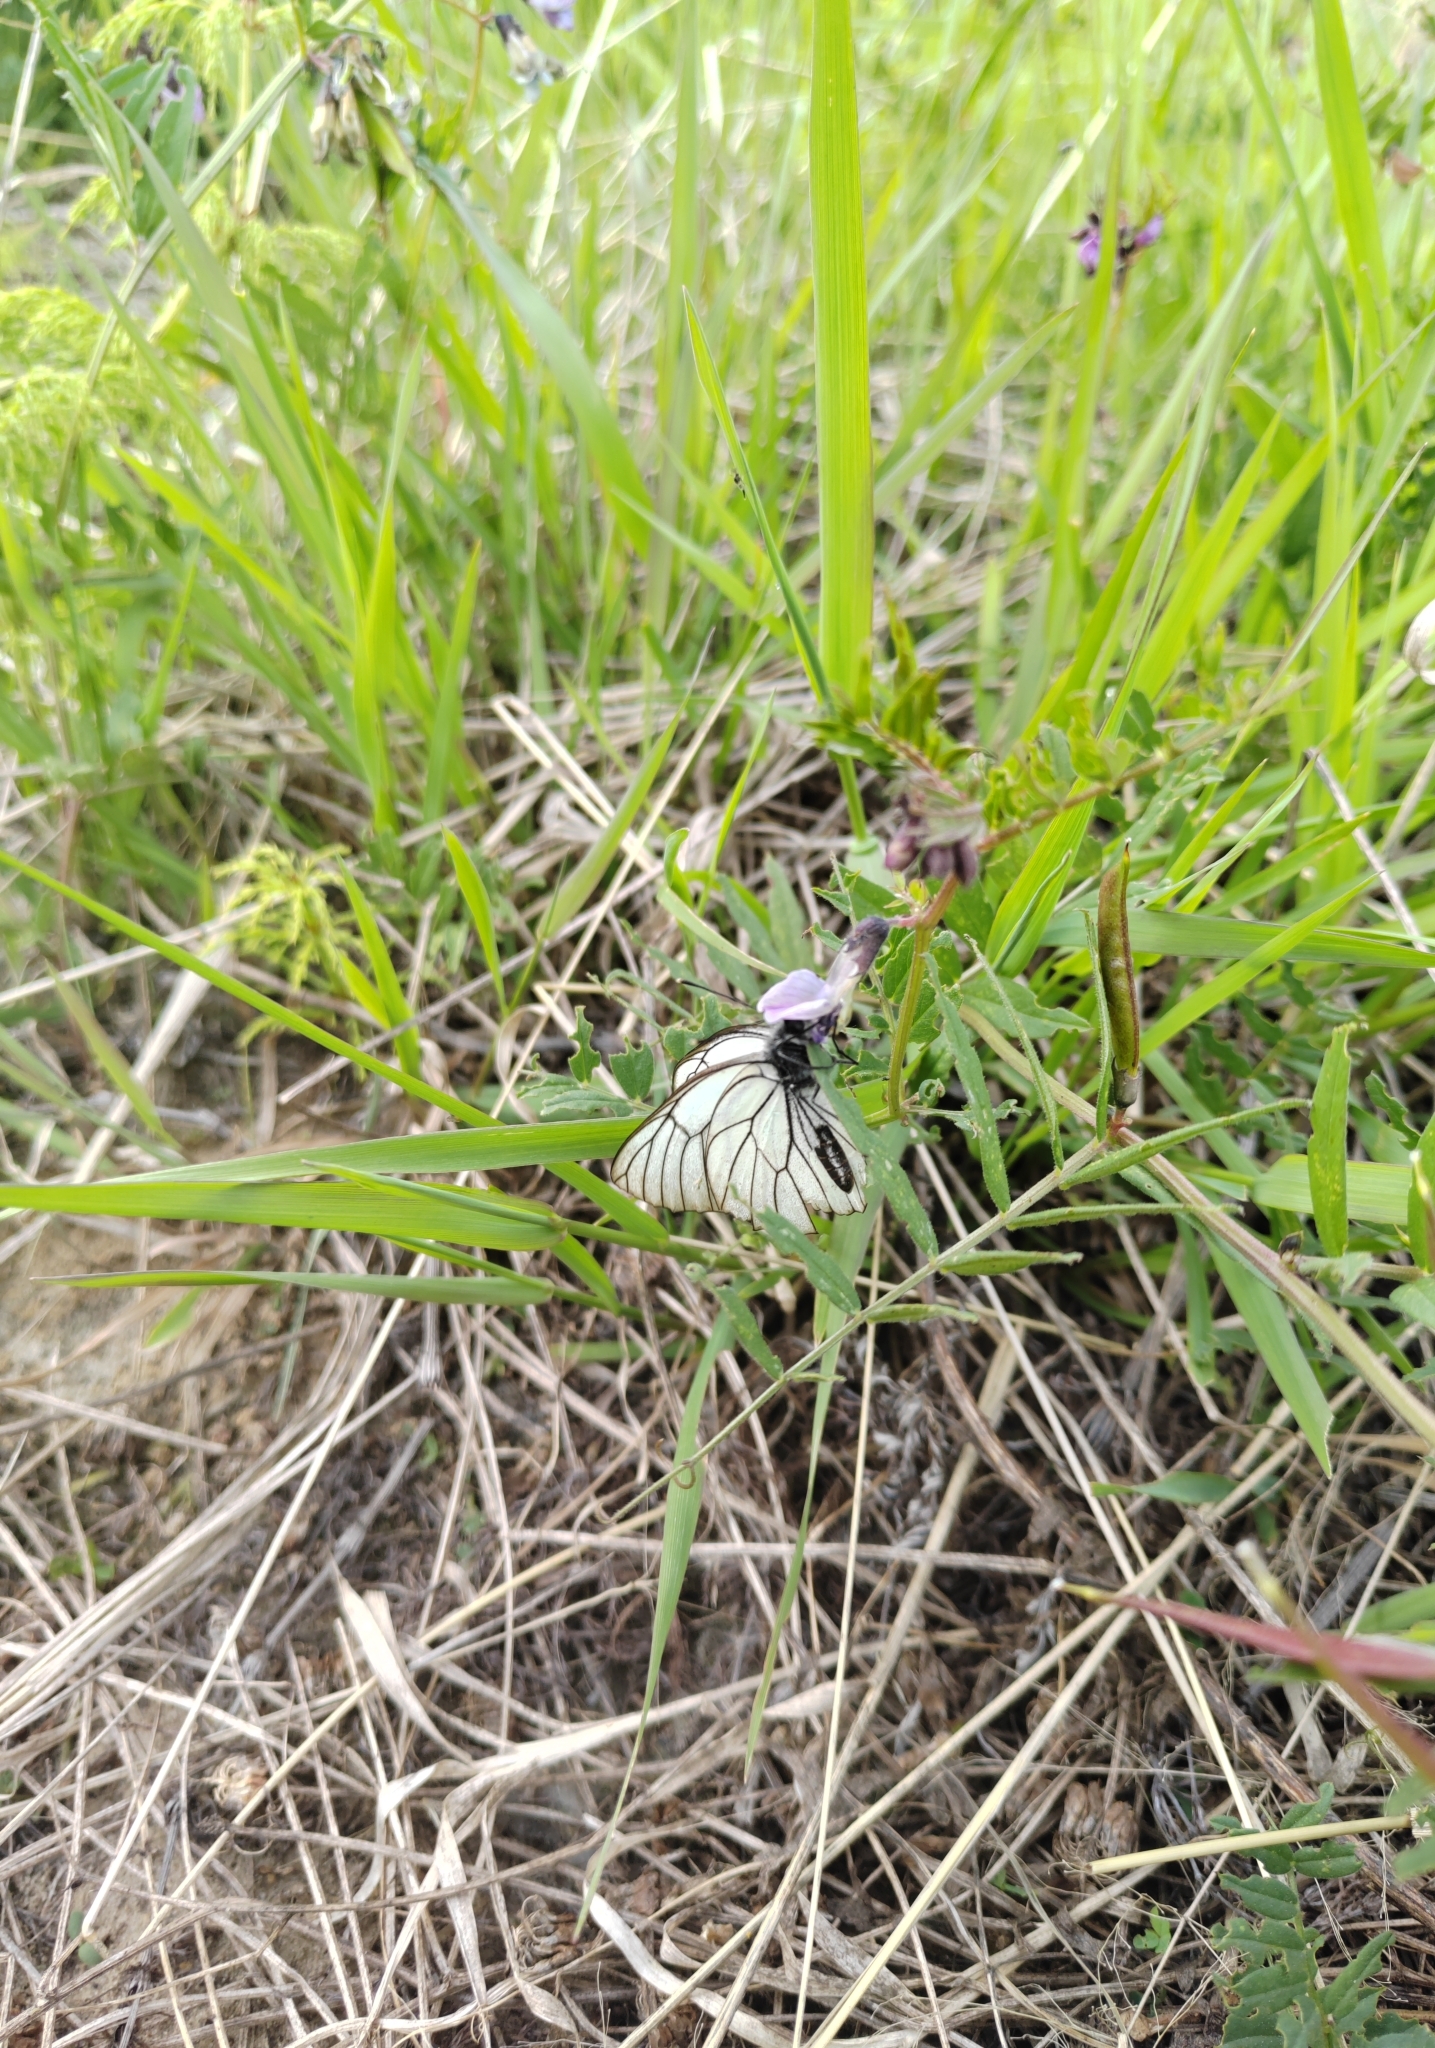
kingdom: Animalia
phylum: Arthropoda
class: Insecta
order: Lepidoptera
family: Pieridae
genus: Aporia
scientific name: Aporia crataegi
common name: Black-veined white
